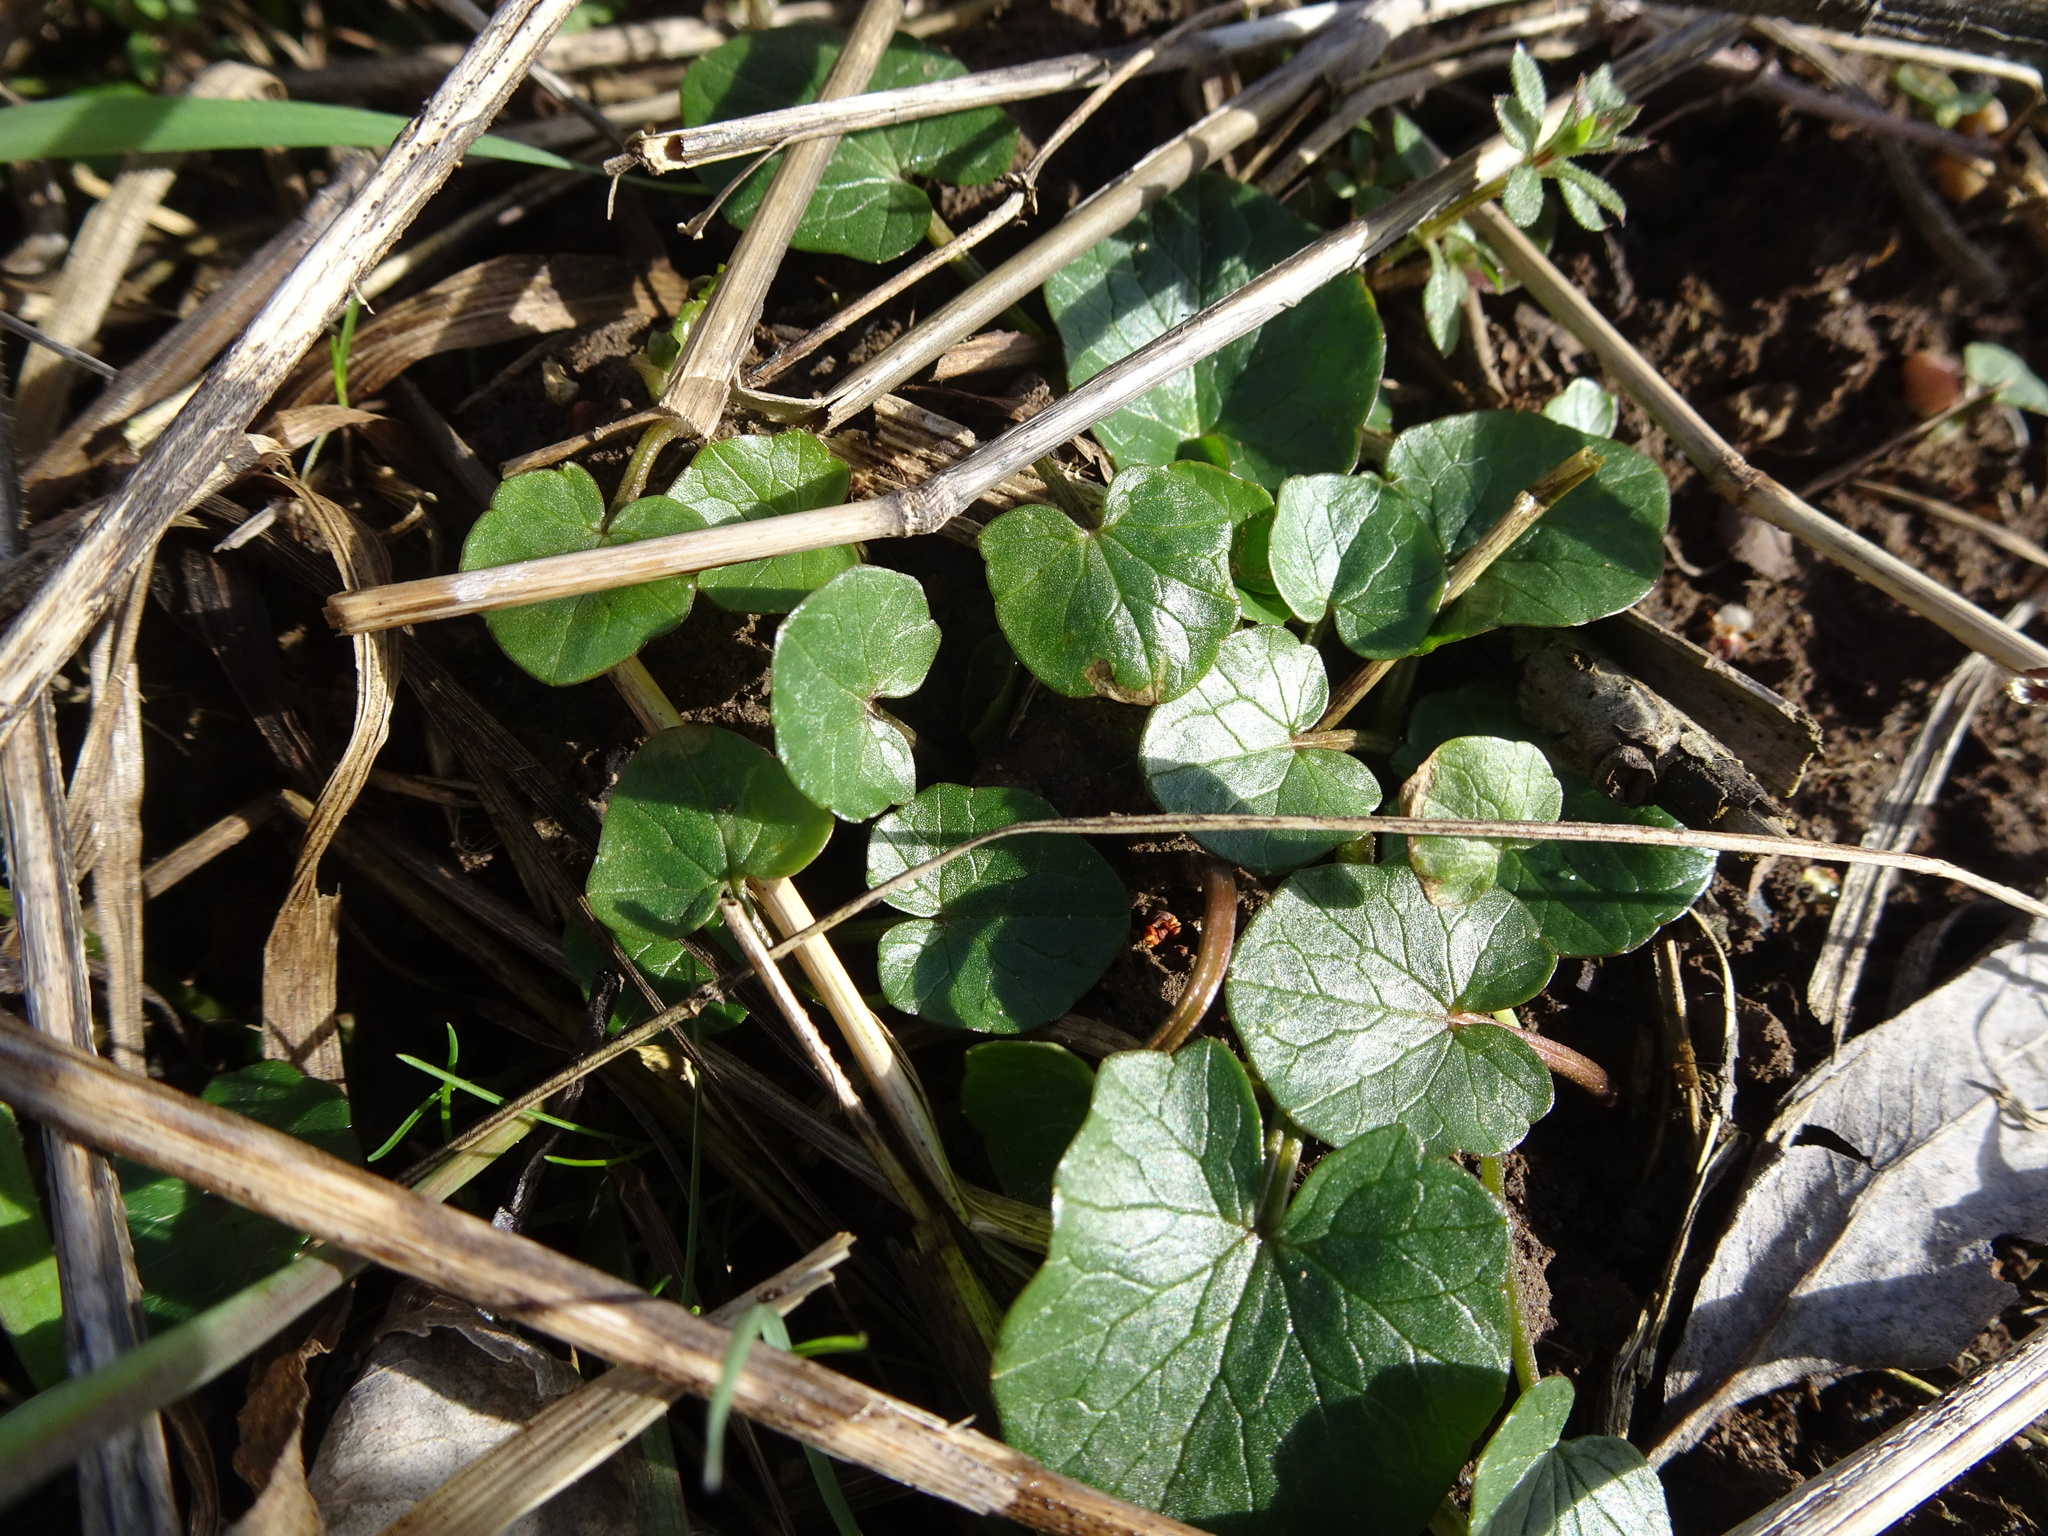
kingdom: Plantae
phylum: Tracheophyta
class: Magnoliopsida
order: Ranunculales
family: Ranunculaceae
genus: Ficaria
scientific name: Ficaria verna
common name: Lesser celandine
